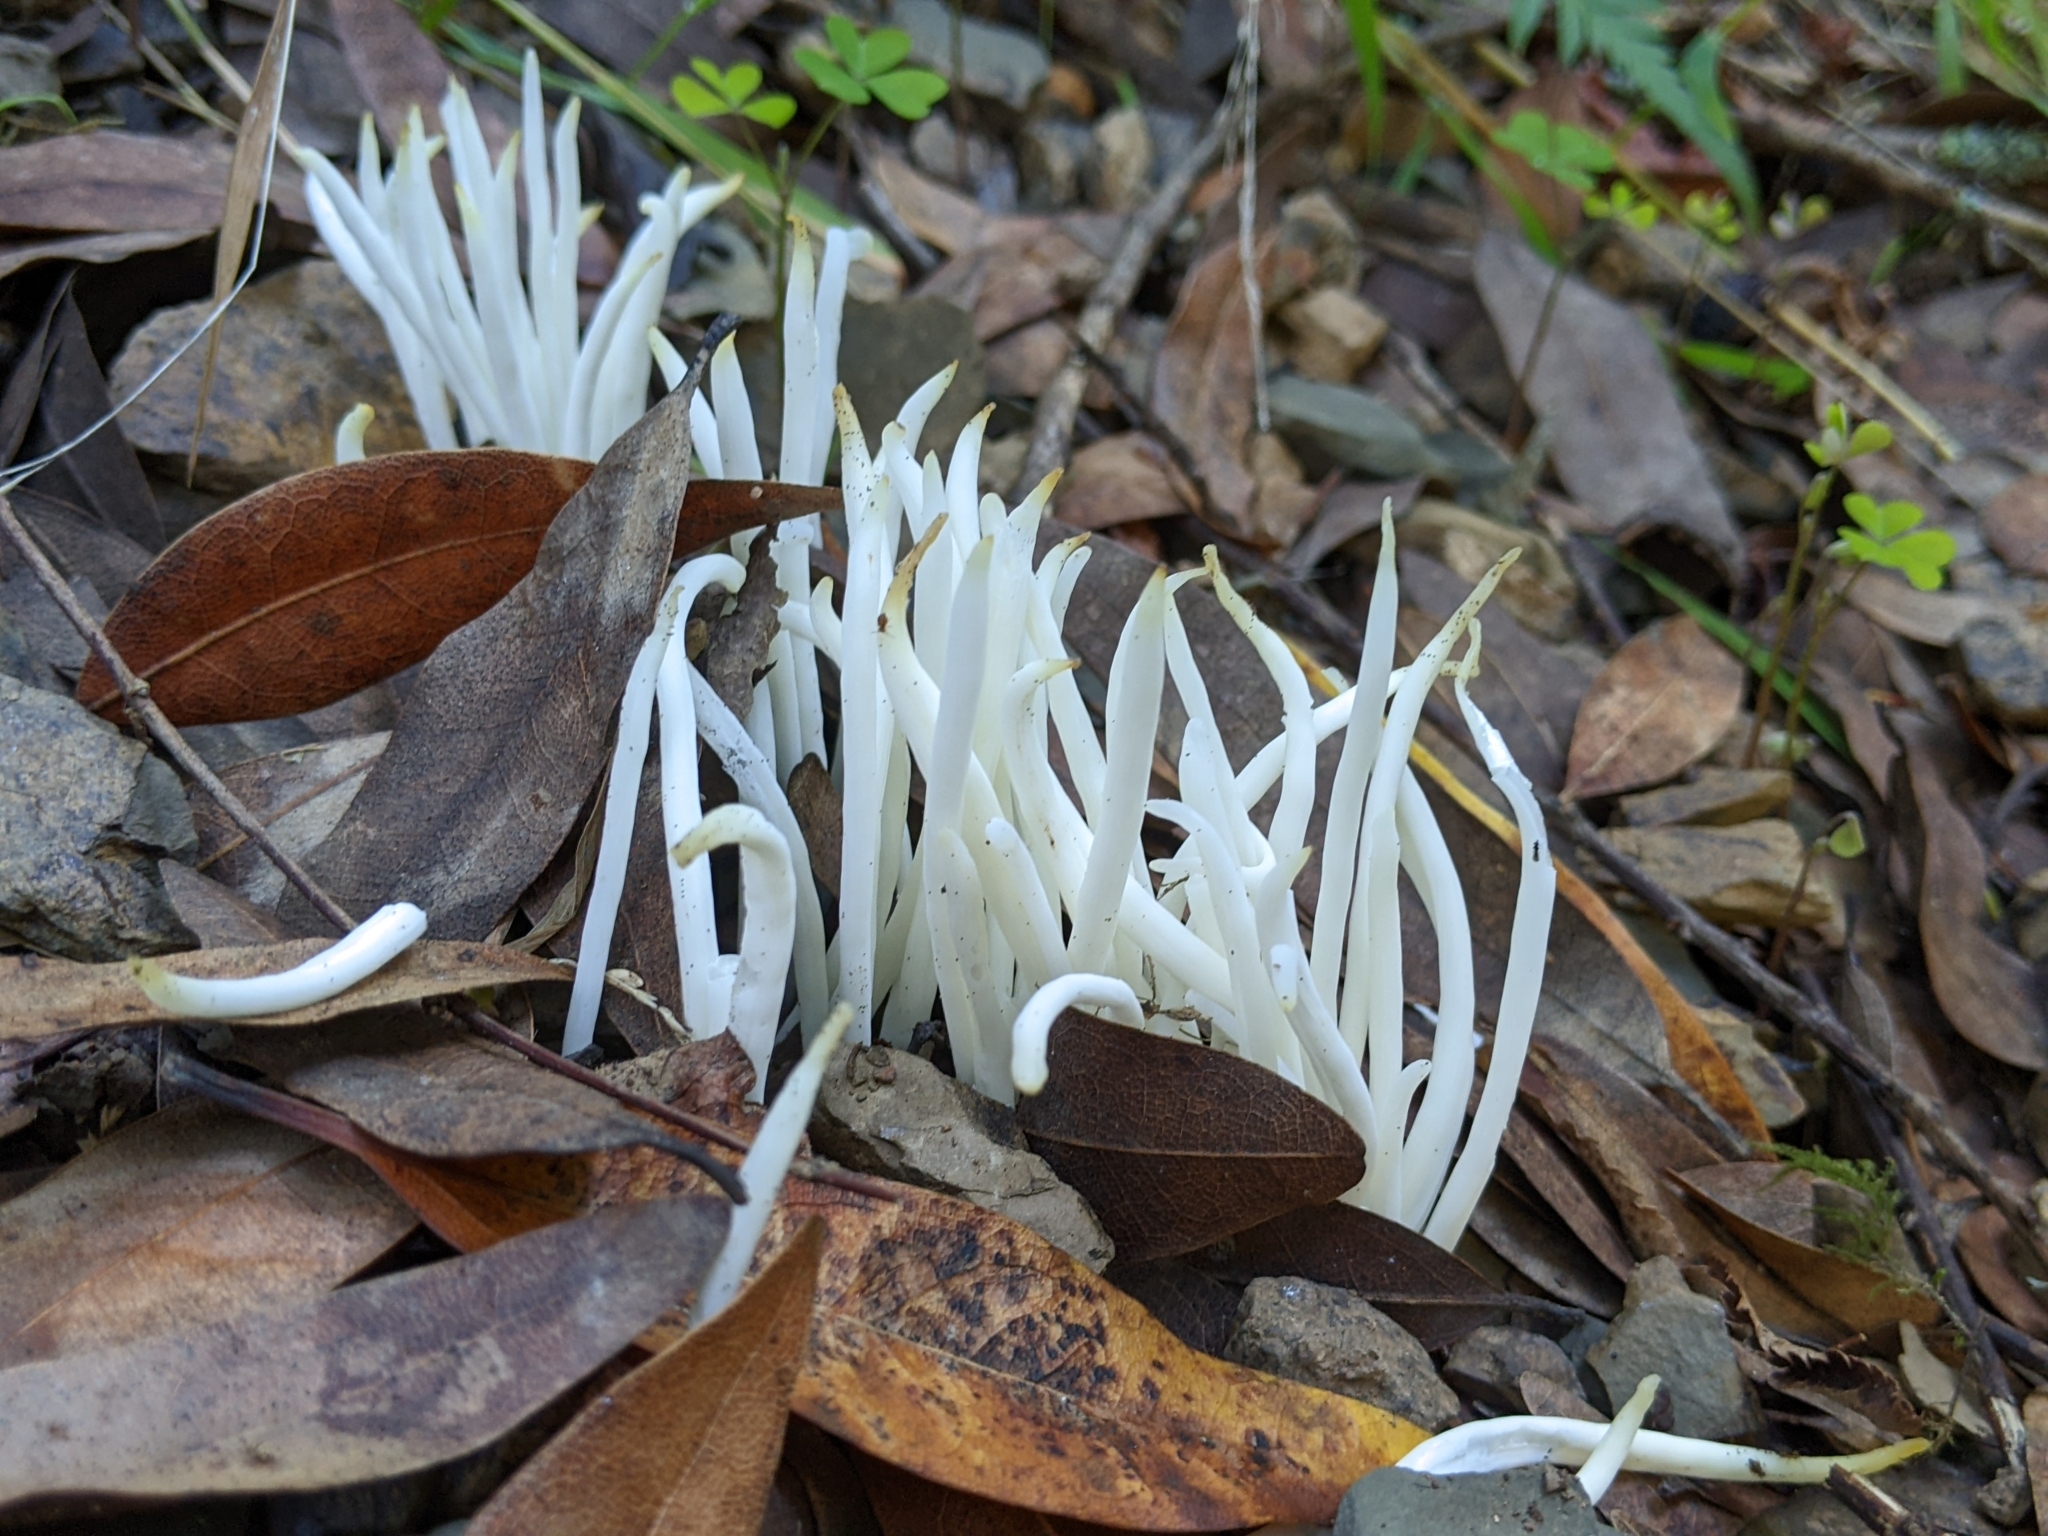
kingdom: Fungi
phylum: Basidiomycota
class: Agaricomycetes
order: Agaricales
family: Clavariaceae
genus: Clavaria
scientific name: Clavaria fragilis
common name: White spindles
